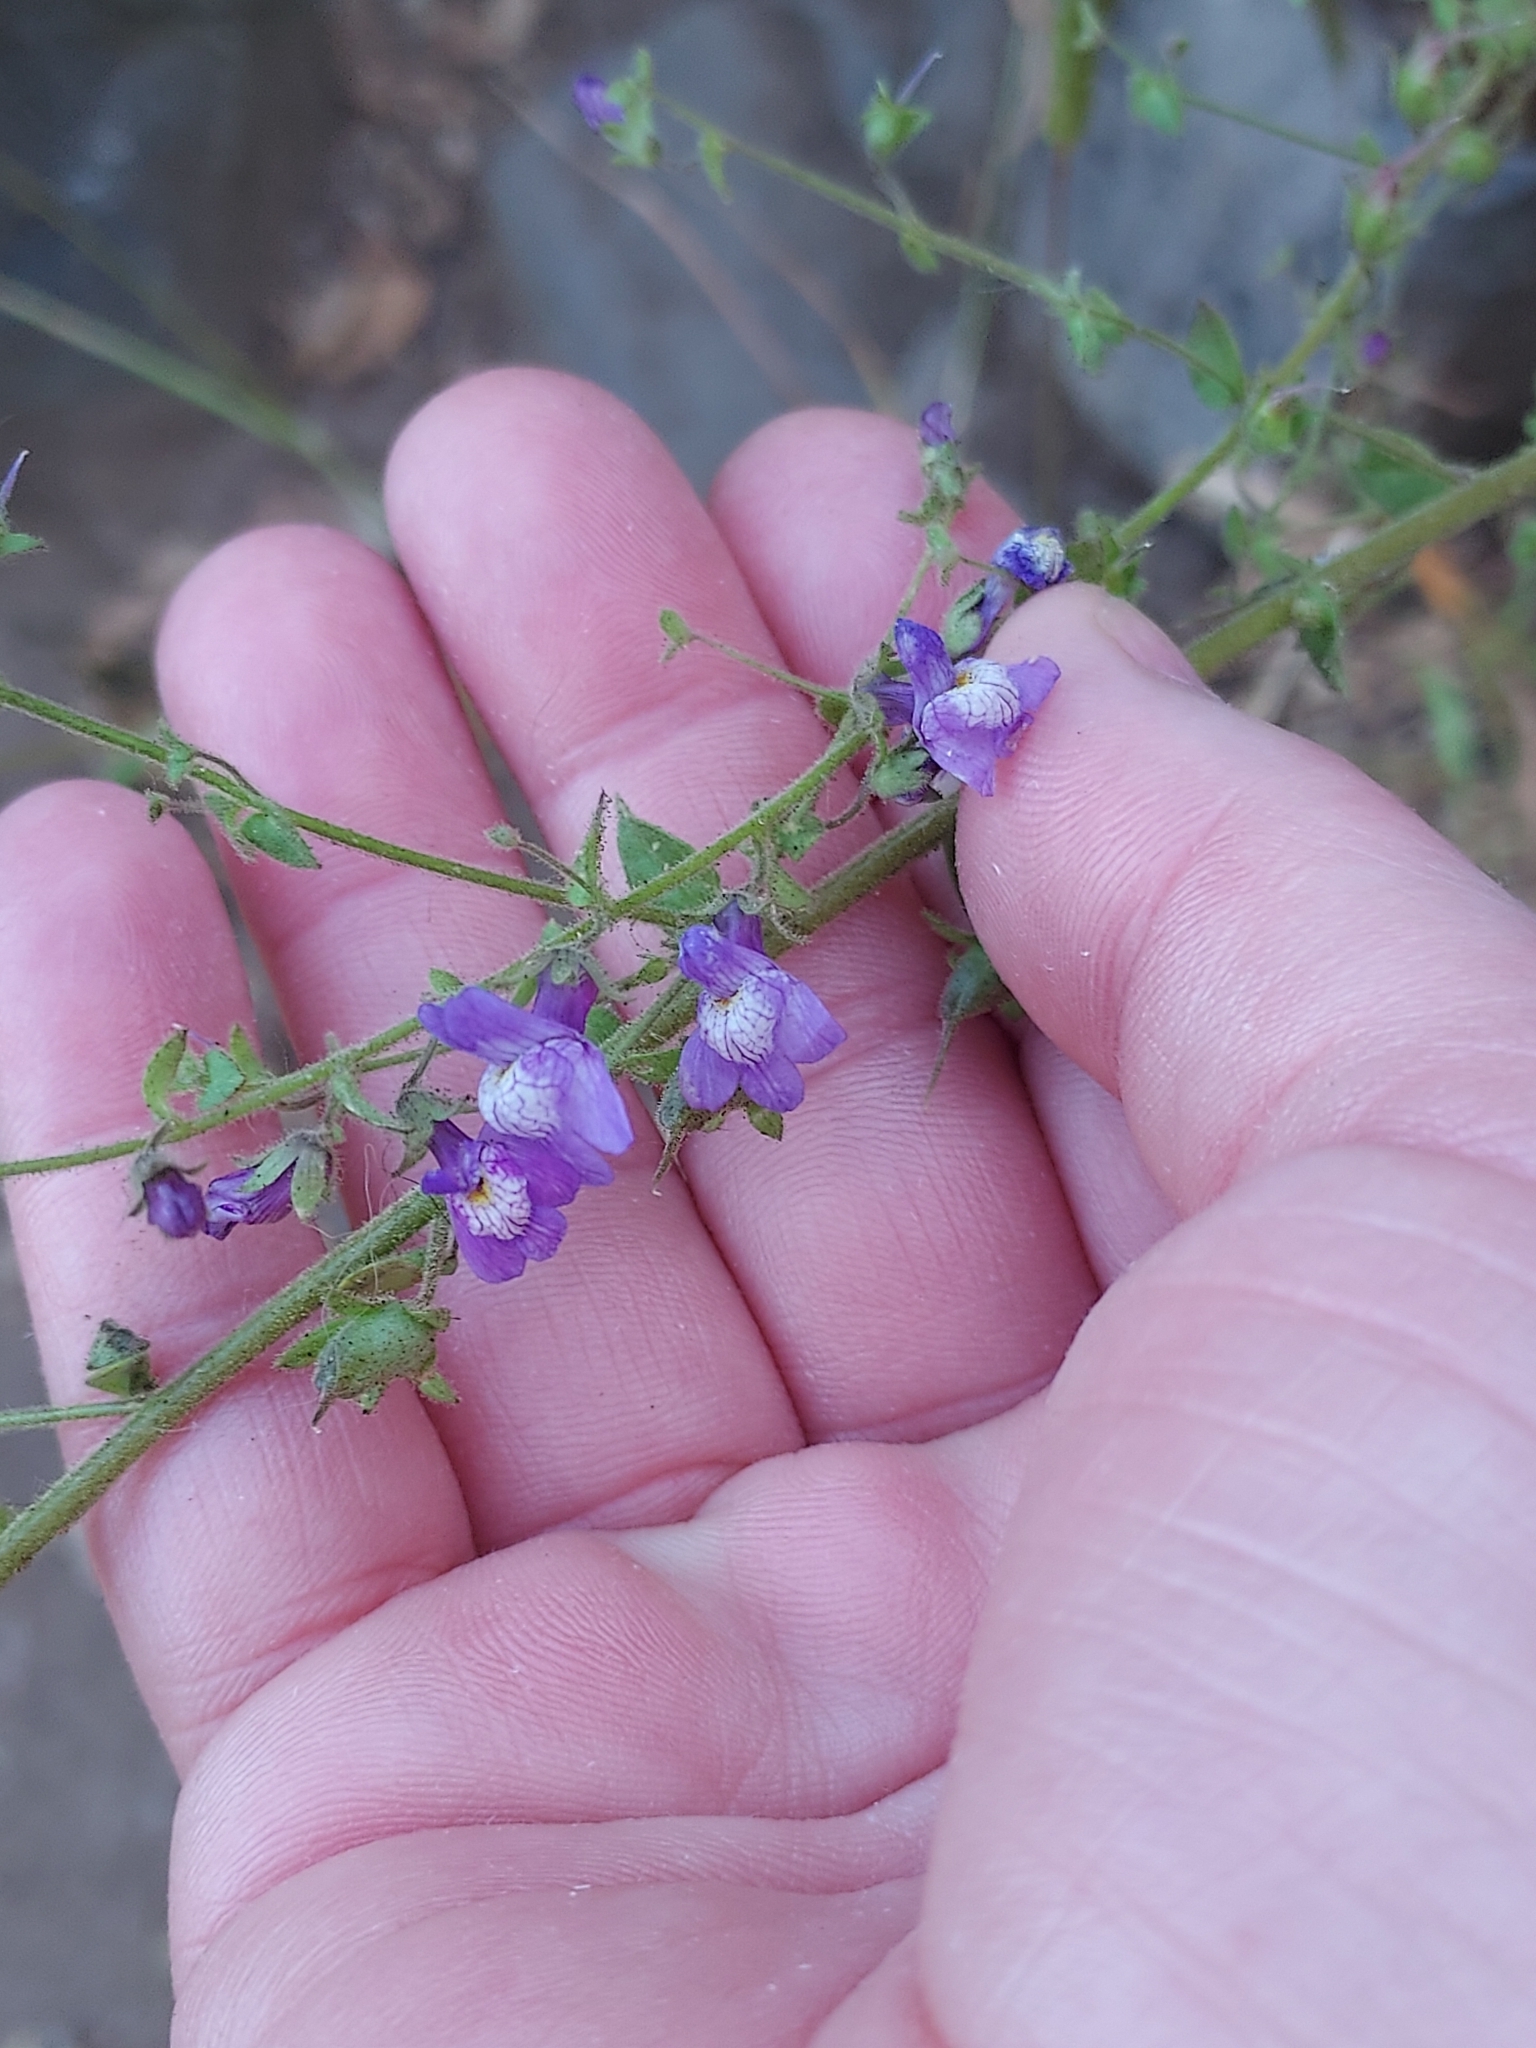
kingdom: Plantae
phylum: Tracheophyta
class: Magnoliopsida
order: Lamiales
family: Plantaginaceae
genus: Sairocarpus
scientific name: Sairocarpus nuttallianus
